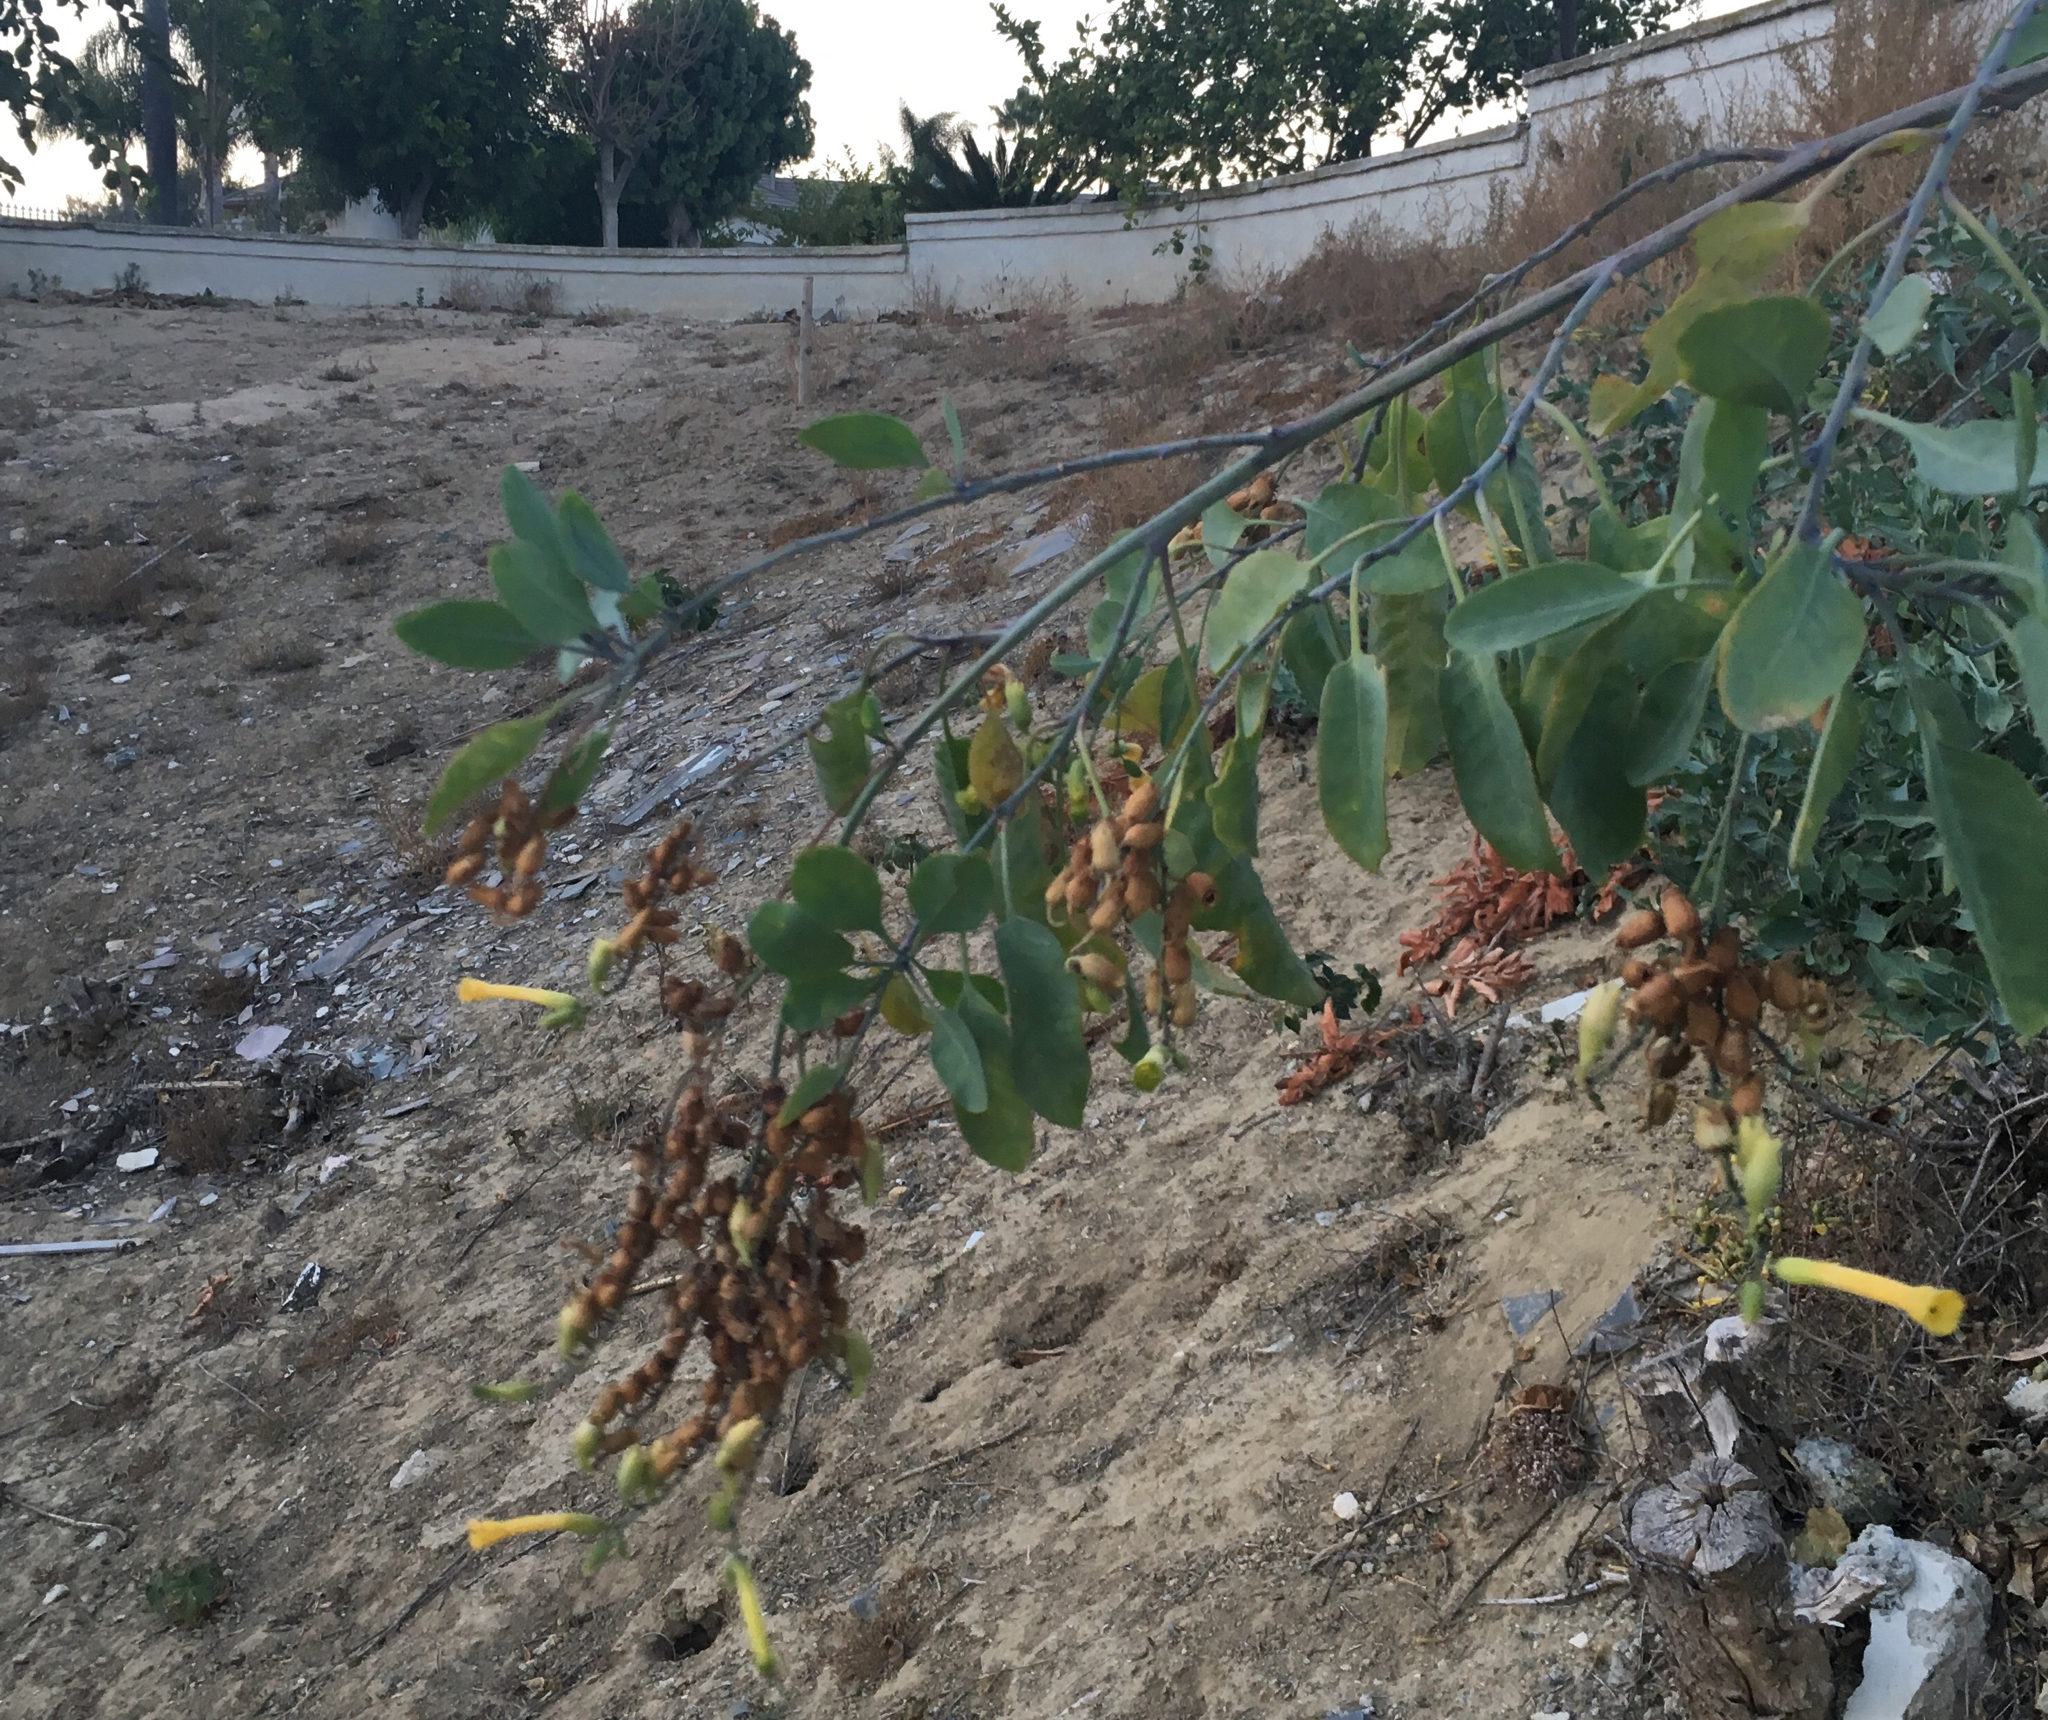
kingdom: Plantae
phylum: Tracheophyta
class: Magnoliopsida
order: Solanales
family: Solanaceae
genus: Nicotiana
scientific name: Nicotiana glauca
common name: Tree tobacco
